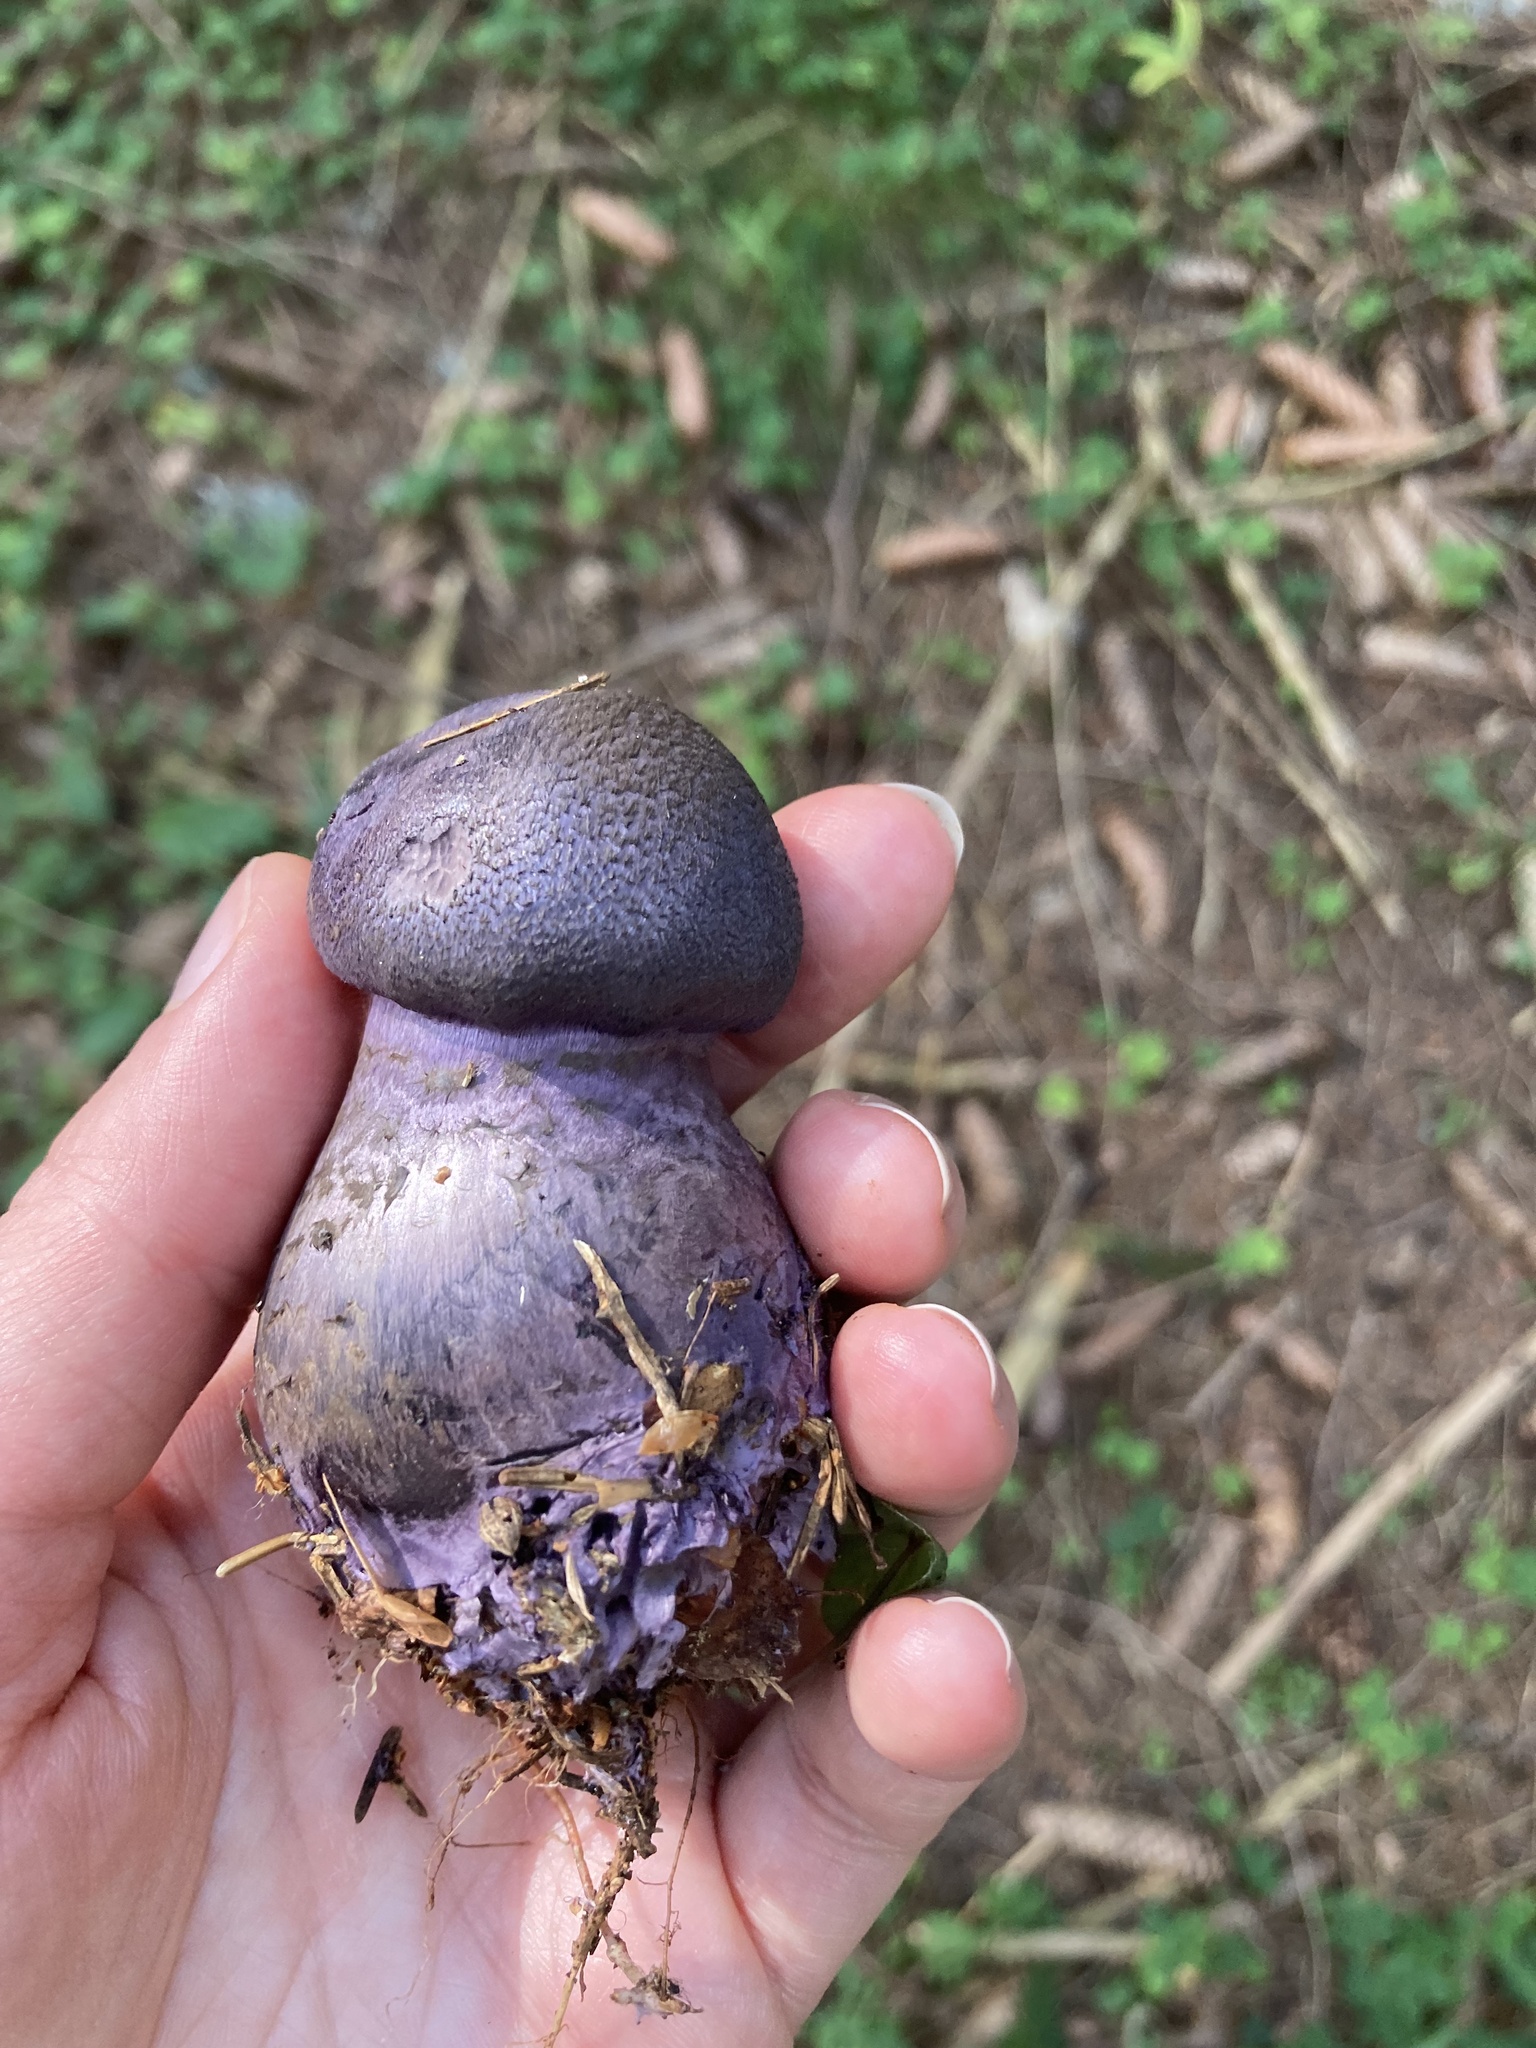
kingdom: Fungi
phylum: Basidiomycota
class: Agaricomycetes
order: Agaricales
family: Cortinariaceae
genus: Cortinarius
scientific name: Cortinarius violaceus
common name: Violet webcap
